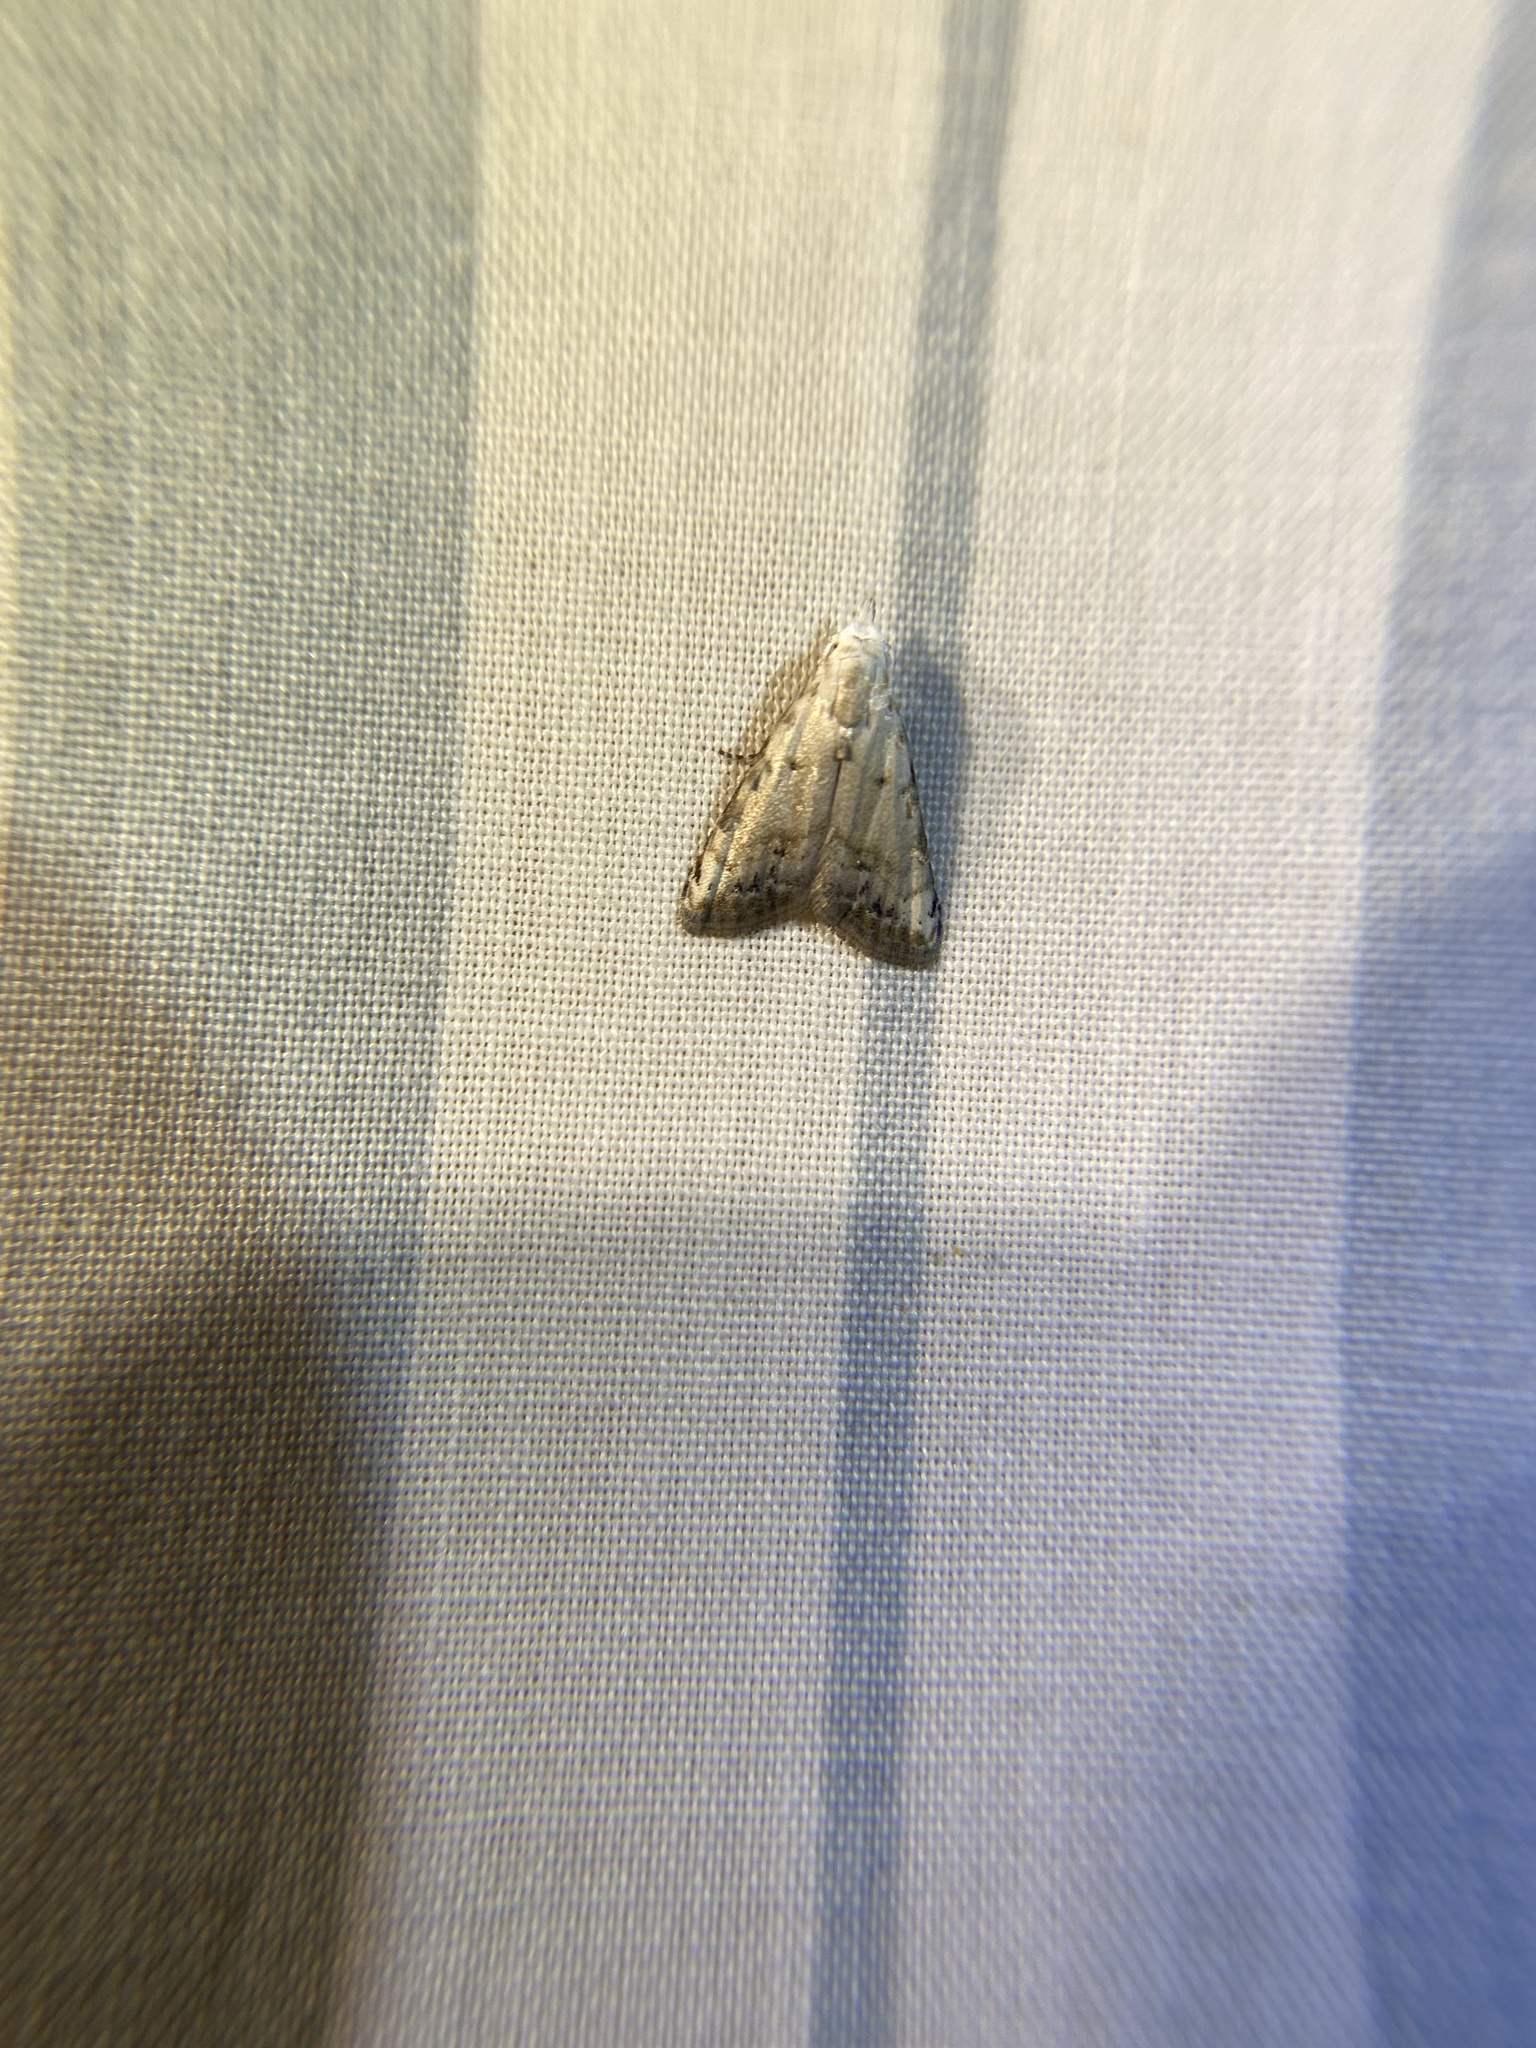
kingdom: Animalia
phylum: Arthropoda
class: Insecta
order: Lepidoptera
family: Nolidae
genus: Nola
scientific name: Nola cereella
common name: Sorghum webworm moth
